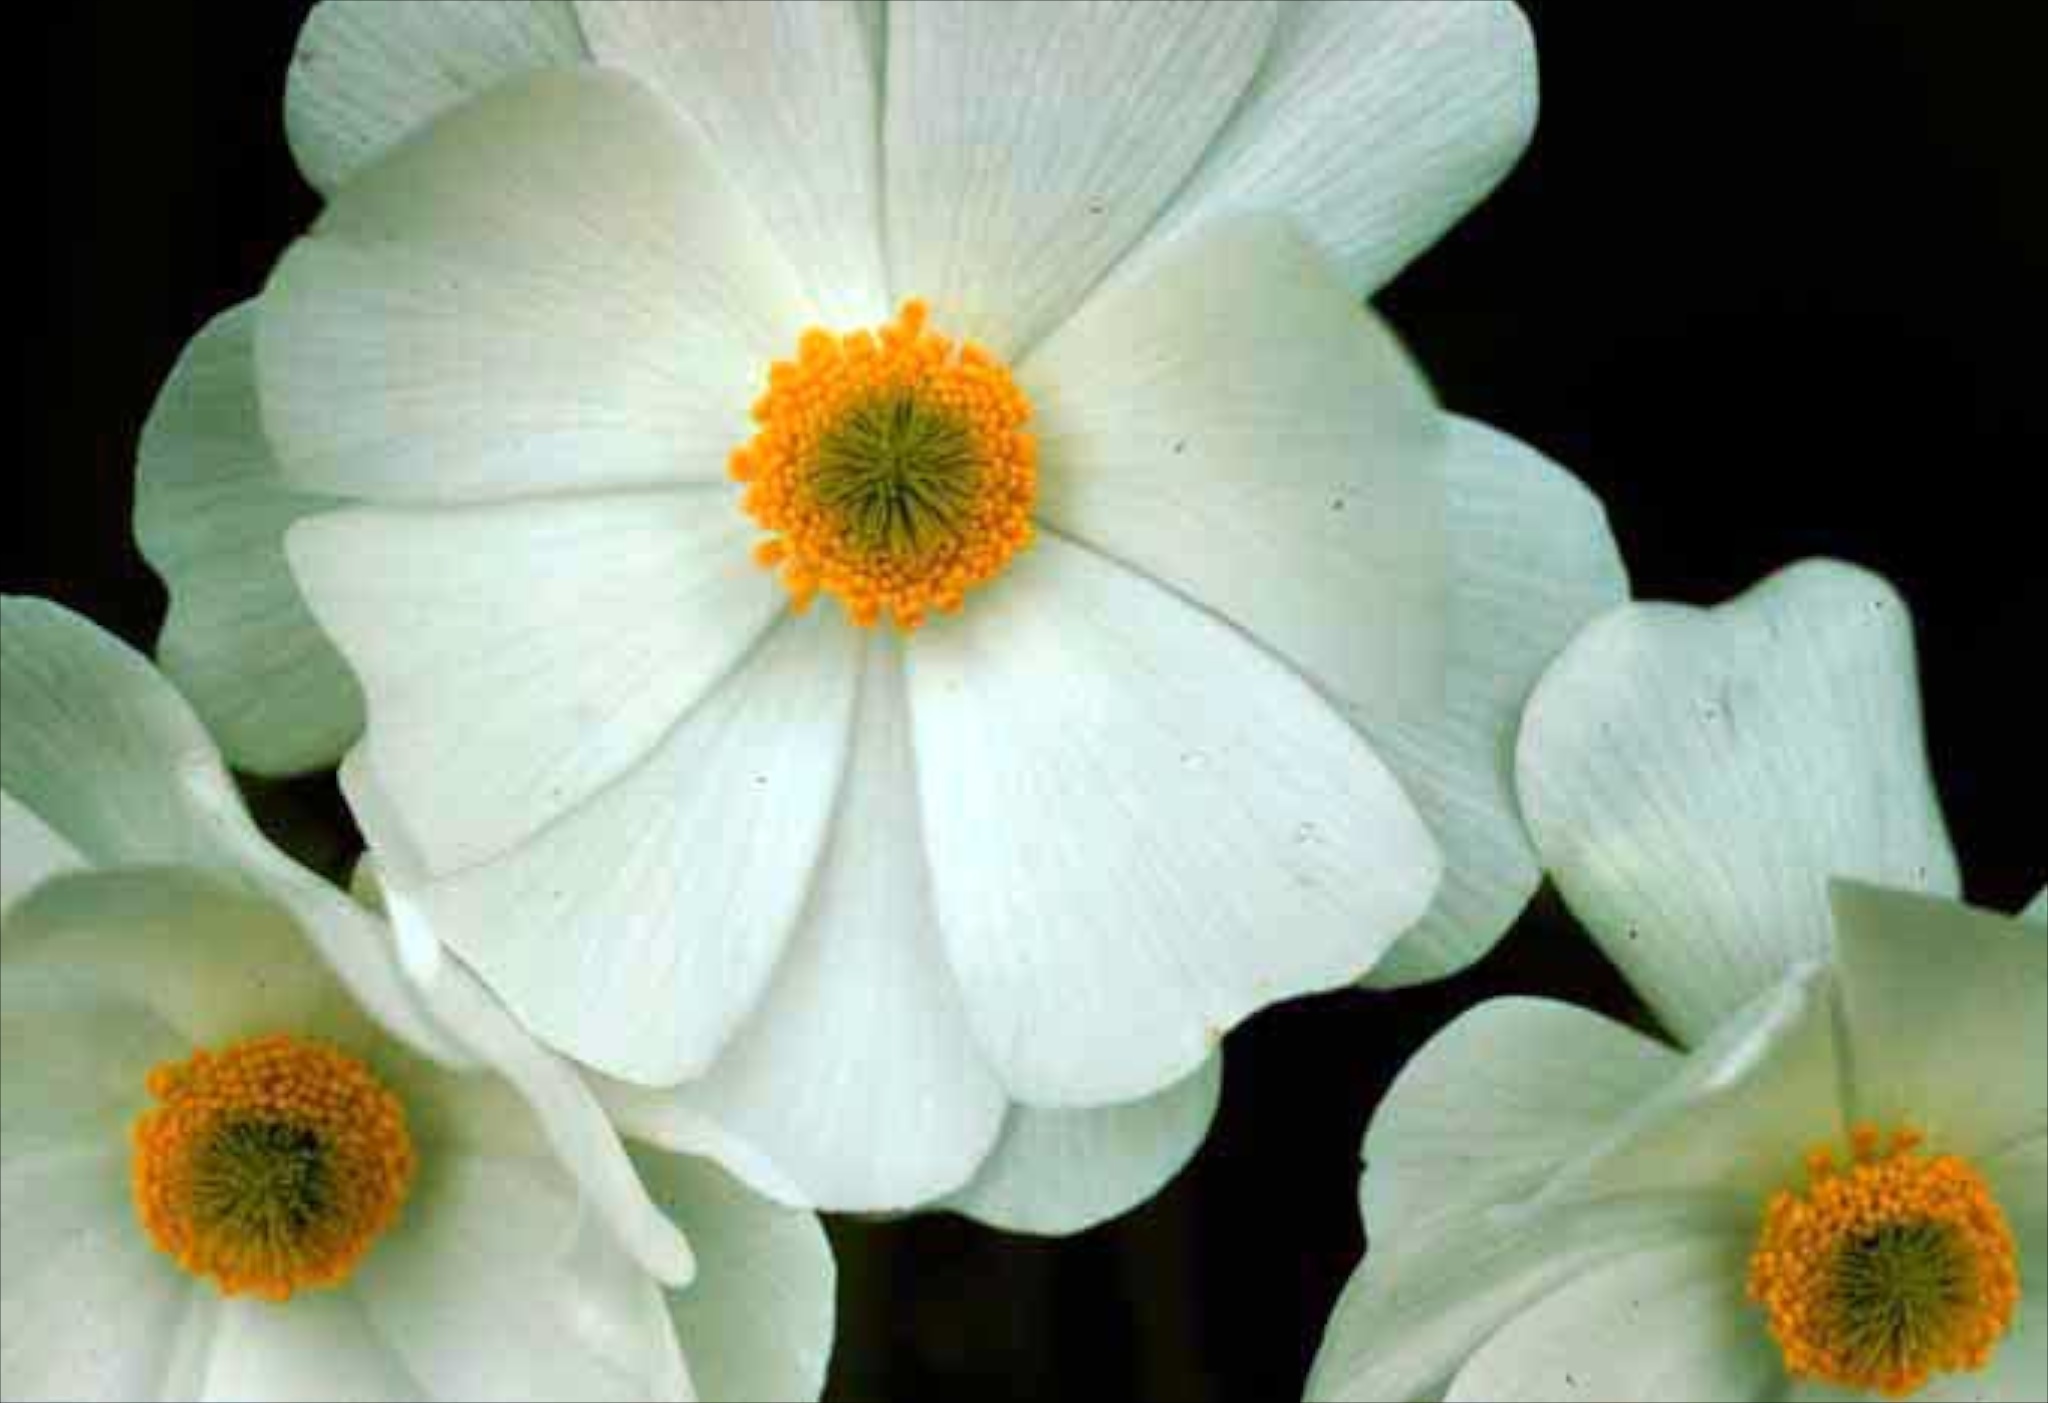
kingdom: Plantae
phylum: Tracheophyta
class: Magnoliopsida
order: Ranunculales
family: Ranunculaceae
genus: Ranunculus
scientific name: Ranunculus lyallii
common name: Mountain-lily
